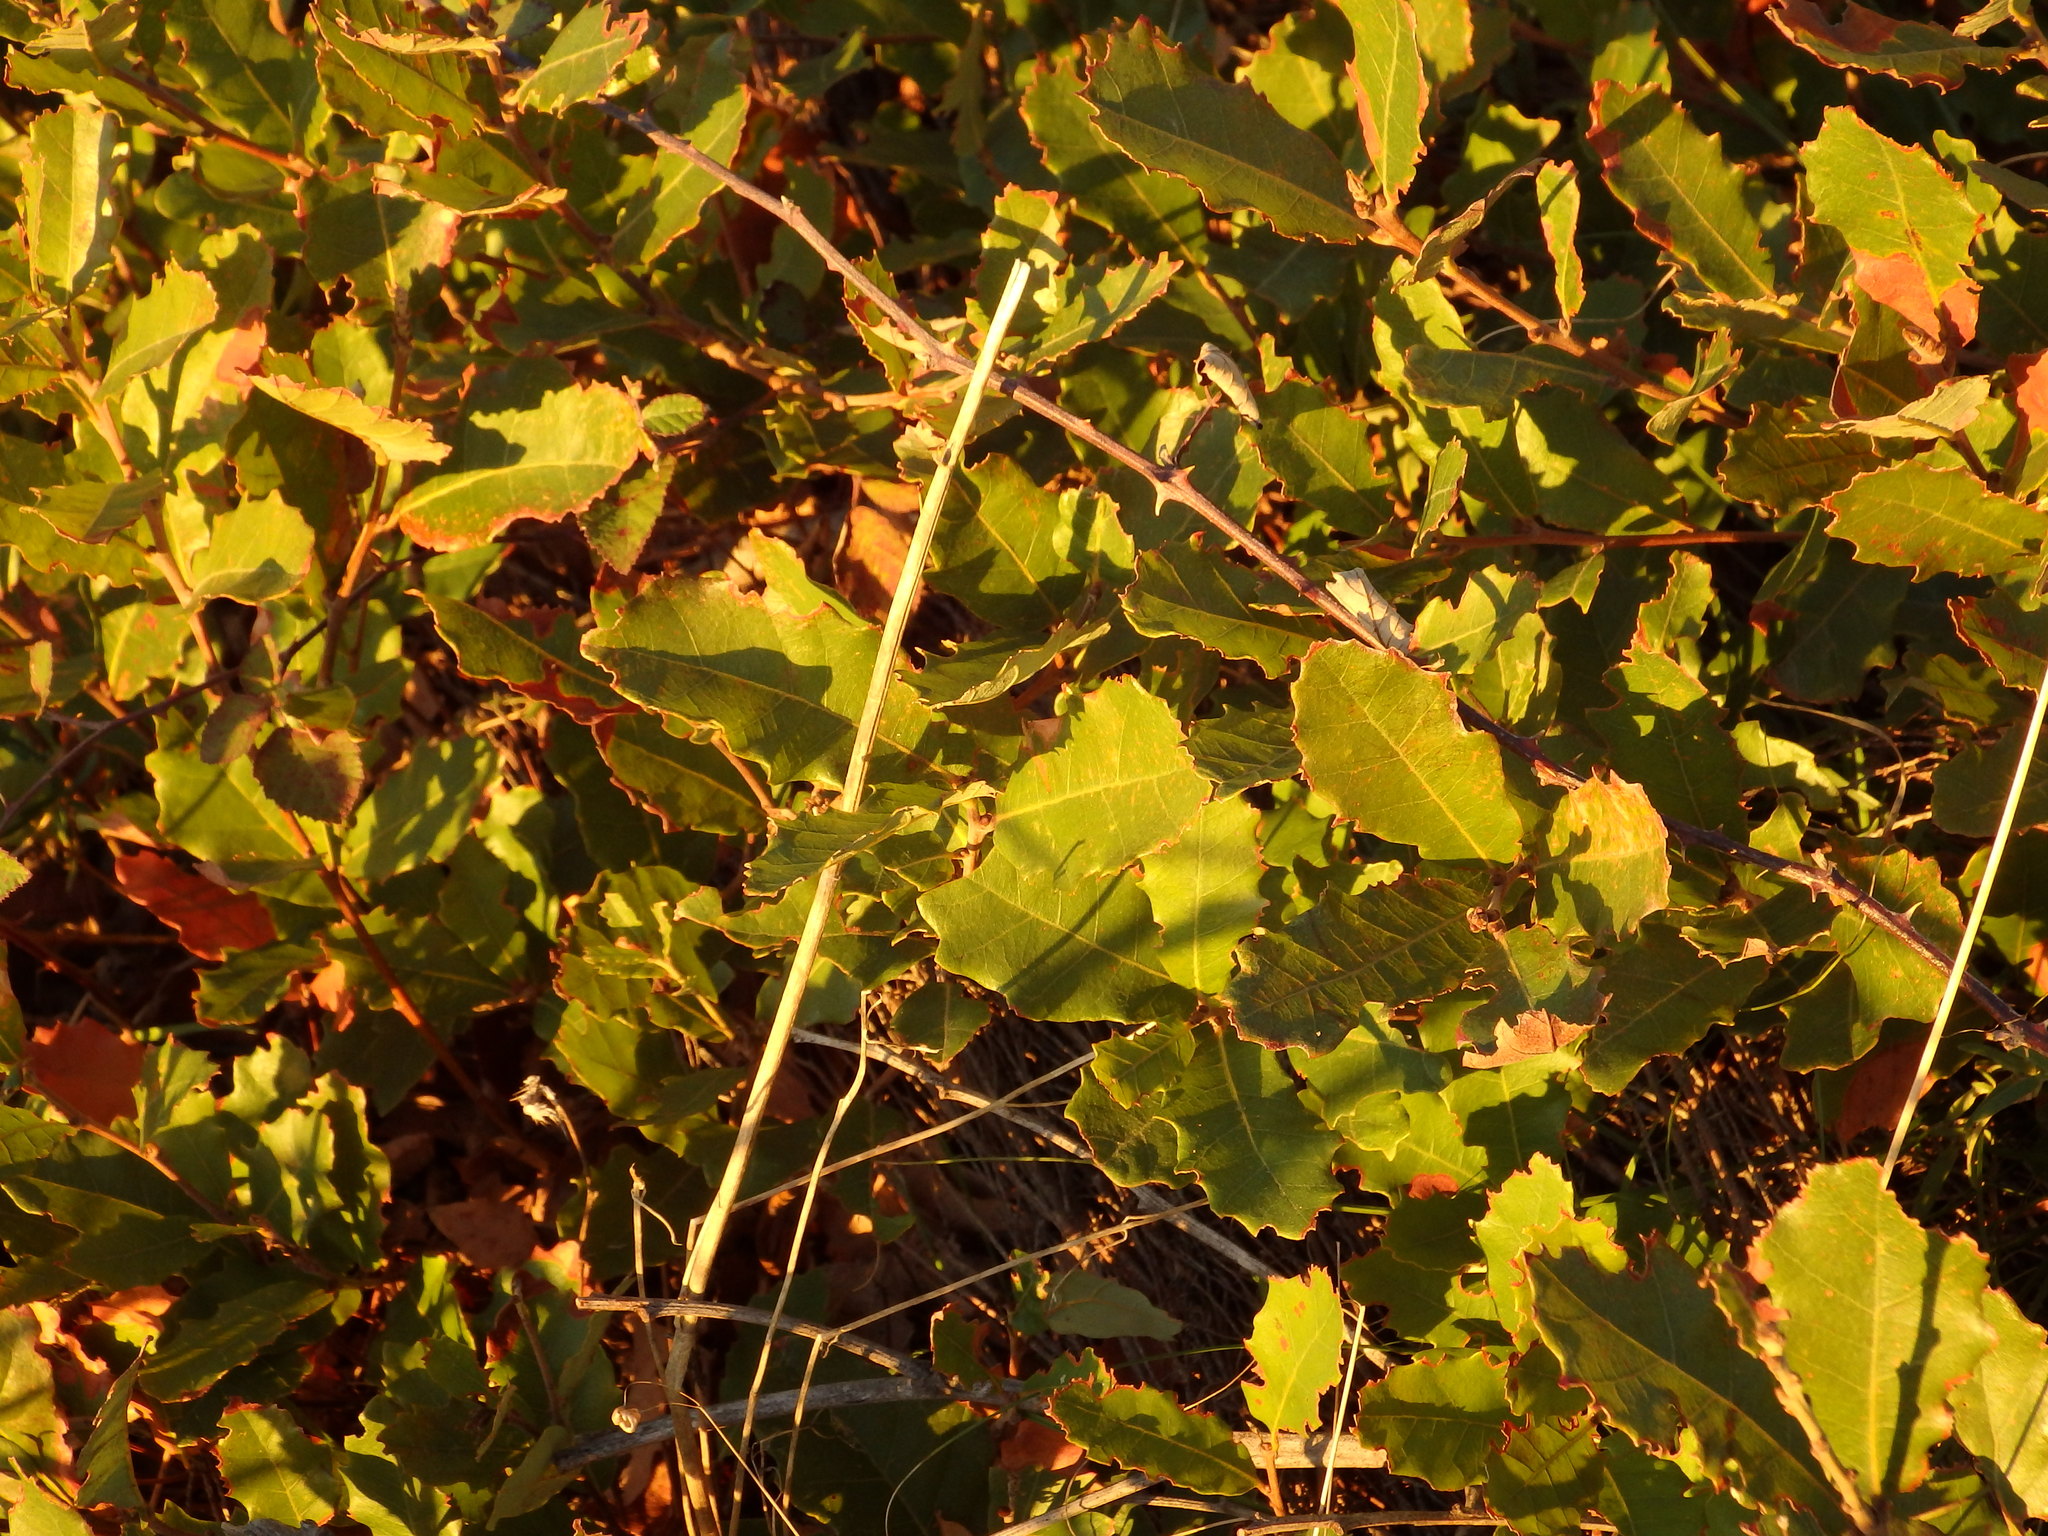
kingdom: Plantae
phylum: Tracheophyta
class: Magnoliopsida
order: Fagales
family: Fagaceae
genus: Quercus
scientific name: Quercus lusitanica
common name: Scrub gall oak
